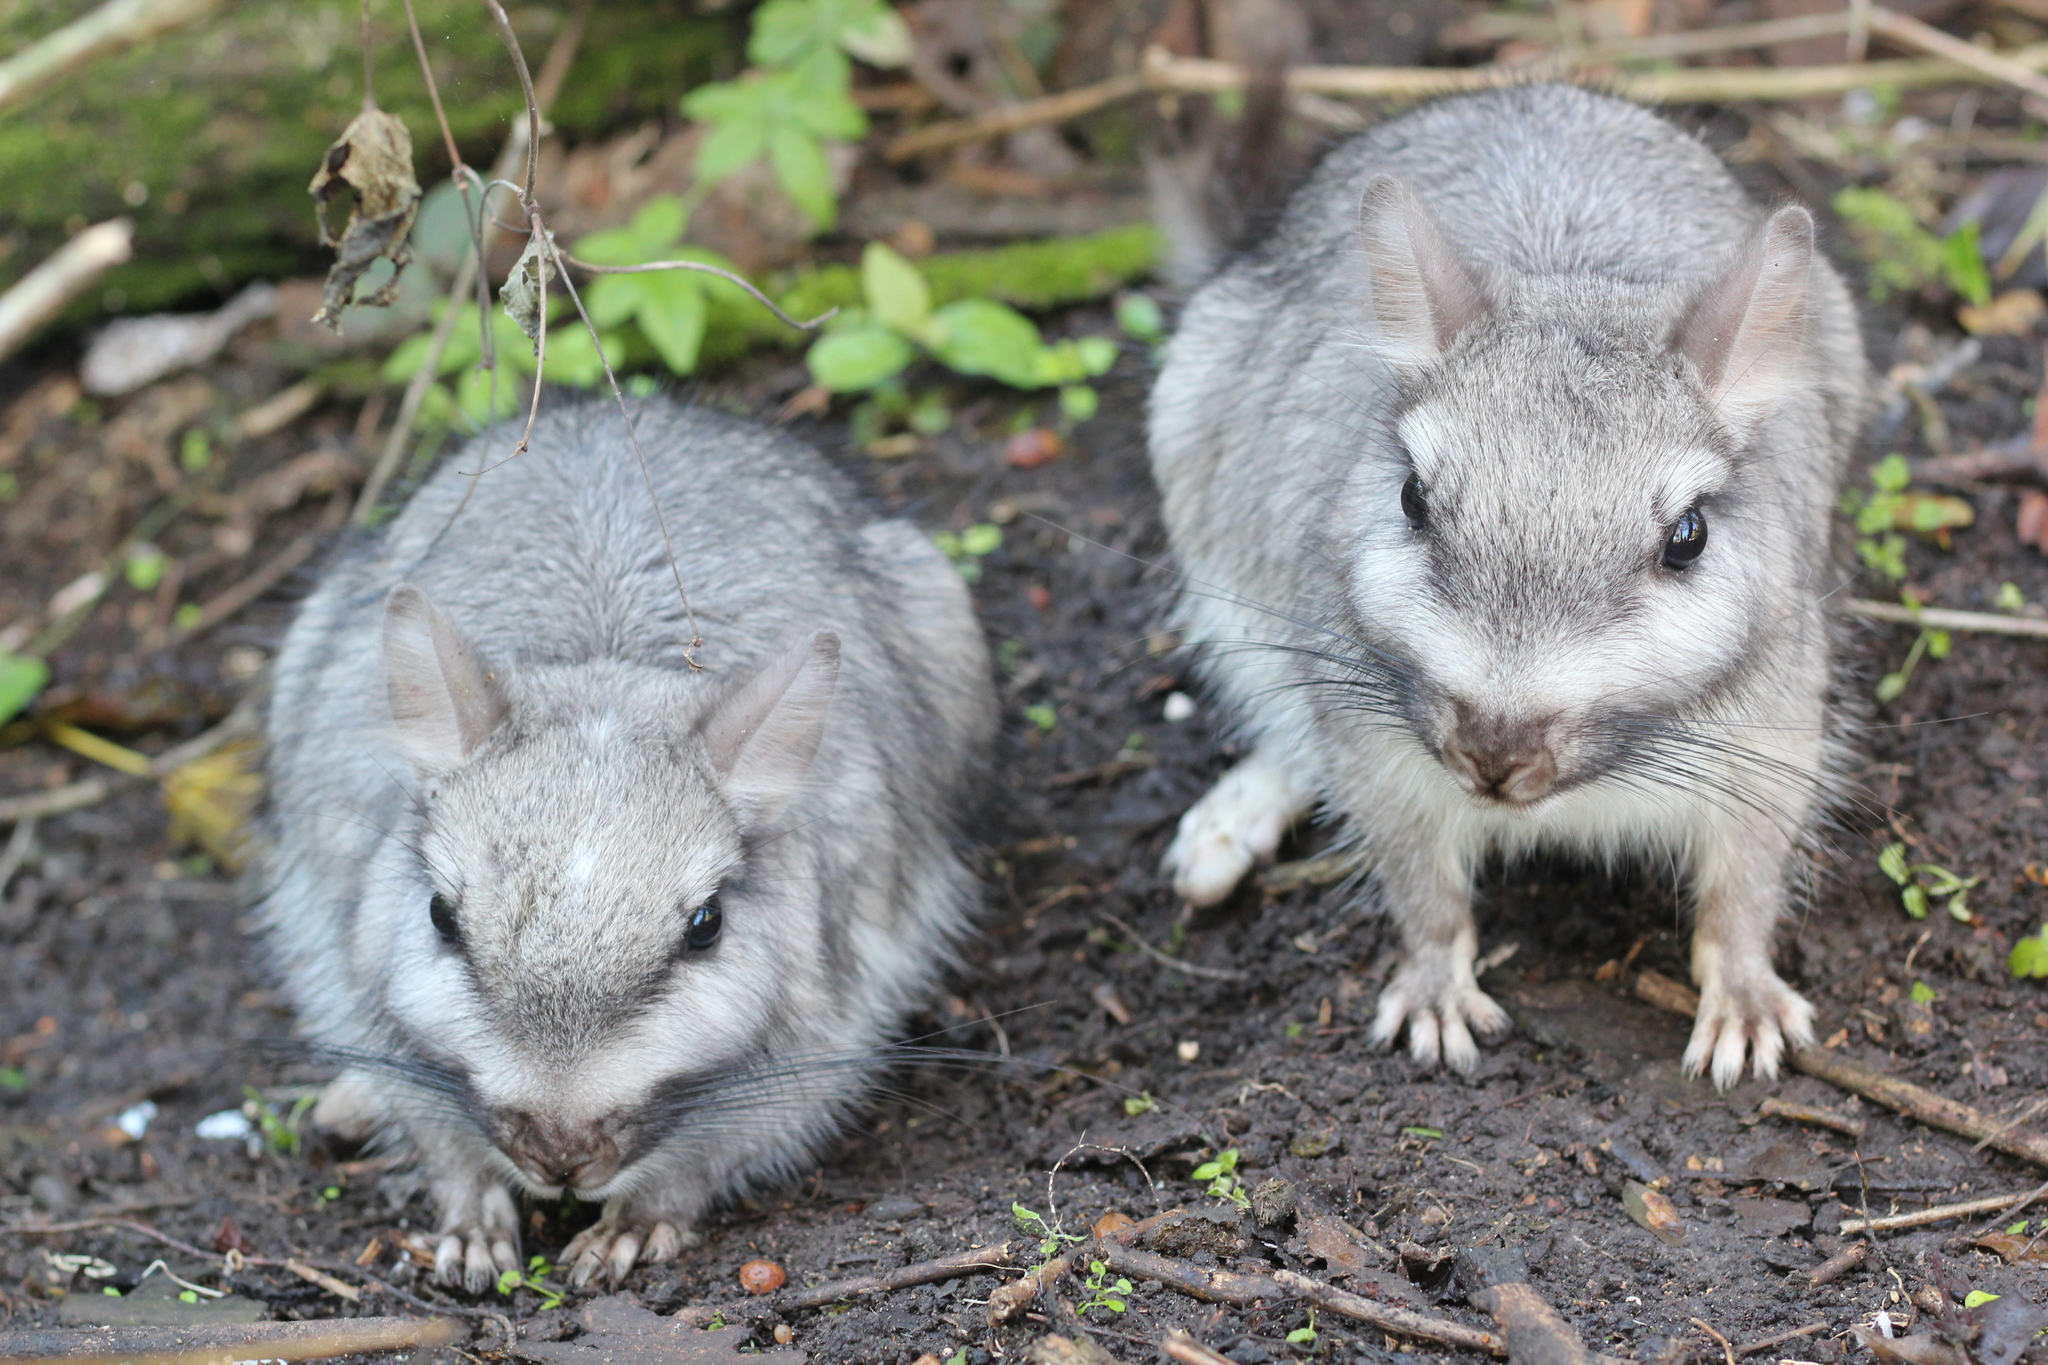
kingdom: Animalia
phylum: Chordata
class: Mammalia
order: Rodentia
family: Chinchillidae
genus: Lagostomus
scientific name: Lagostomus maximus
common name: Plains viscacha
